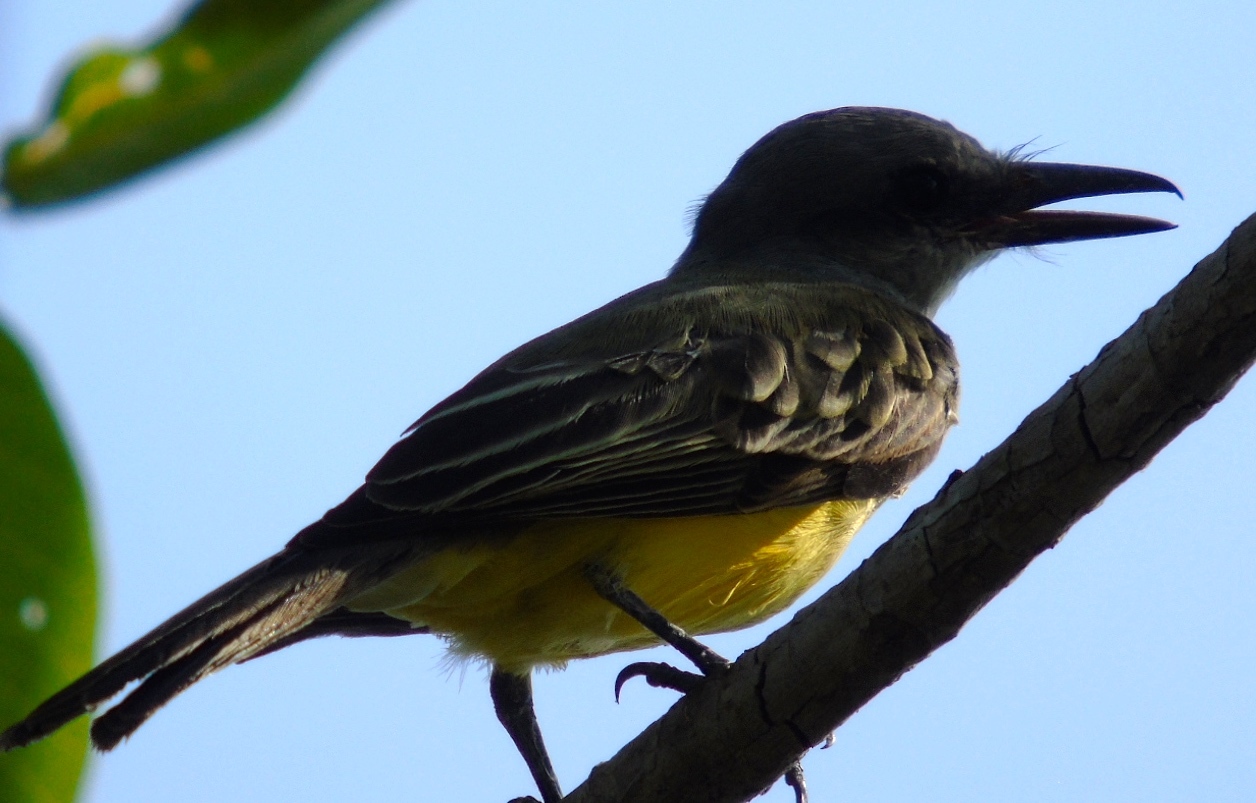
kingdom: Animalia
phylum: Chordata
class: Aves
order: Passeriformes
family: Tyrannidae
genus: Tyrannus
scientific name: Tyrannus melancholicus
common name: Tropical kingbird
